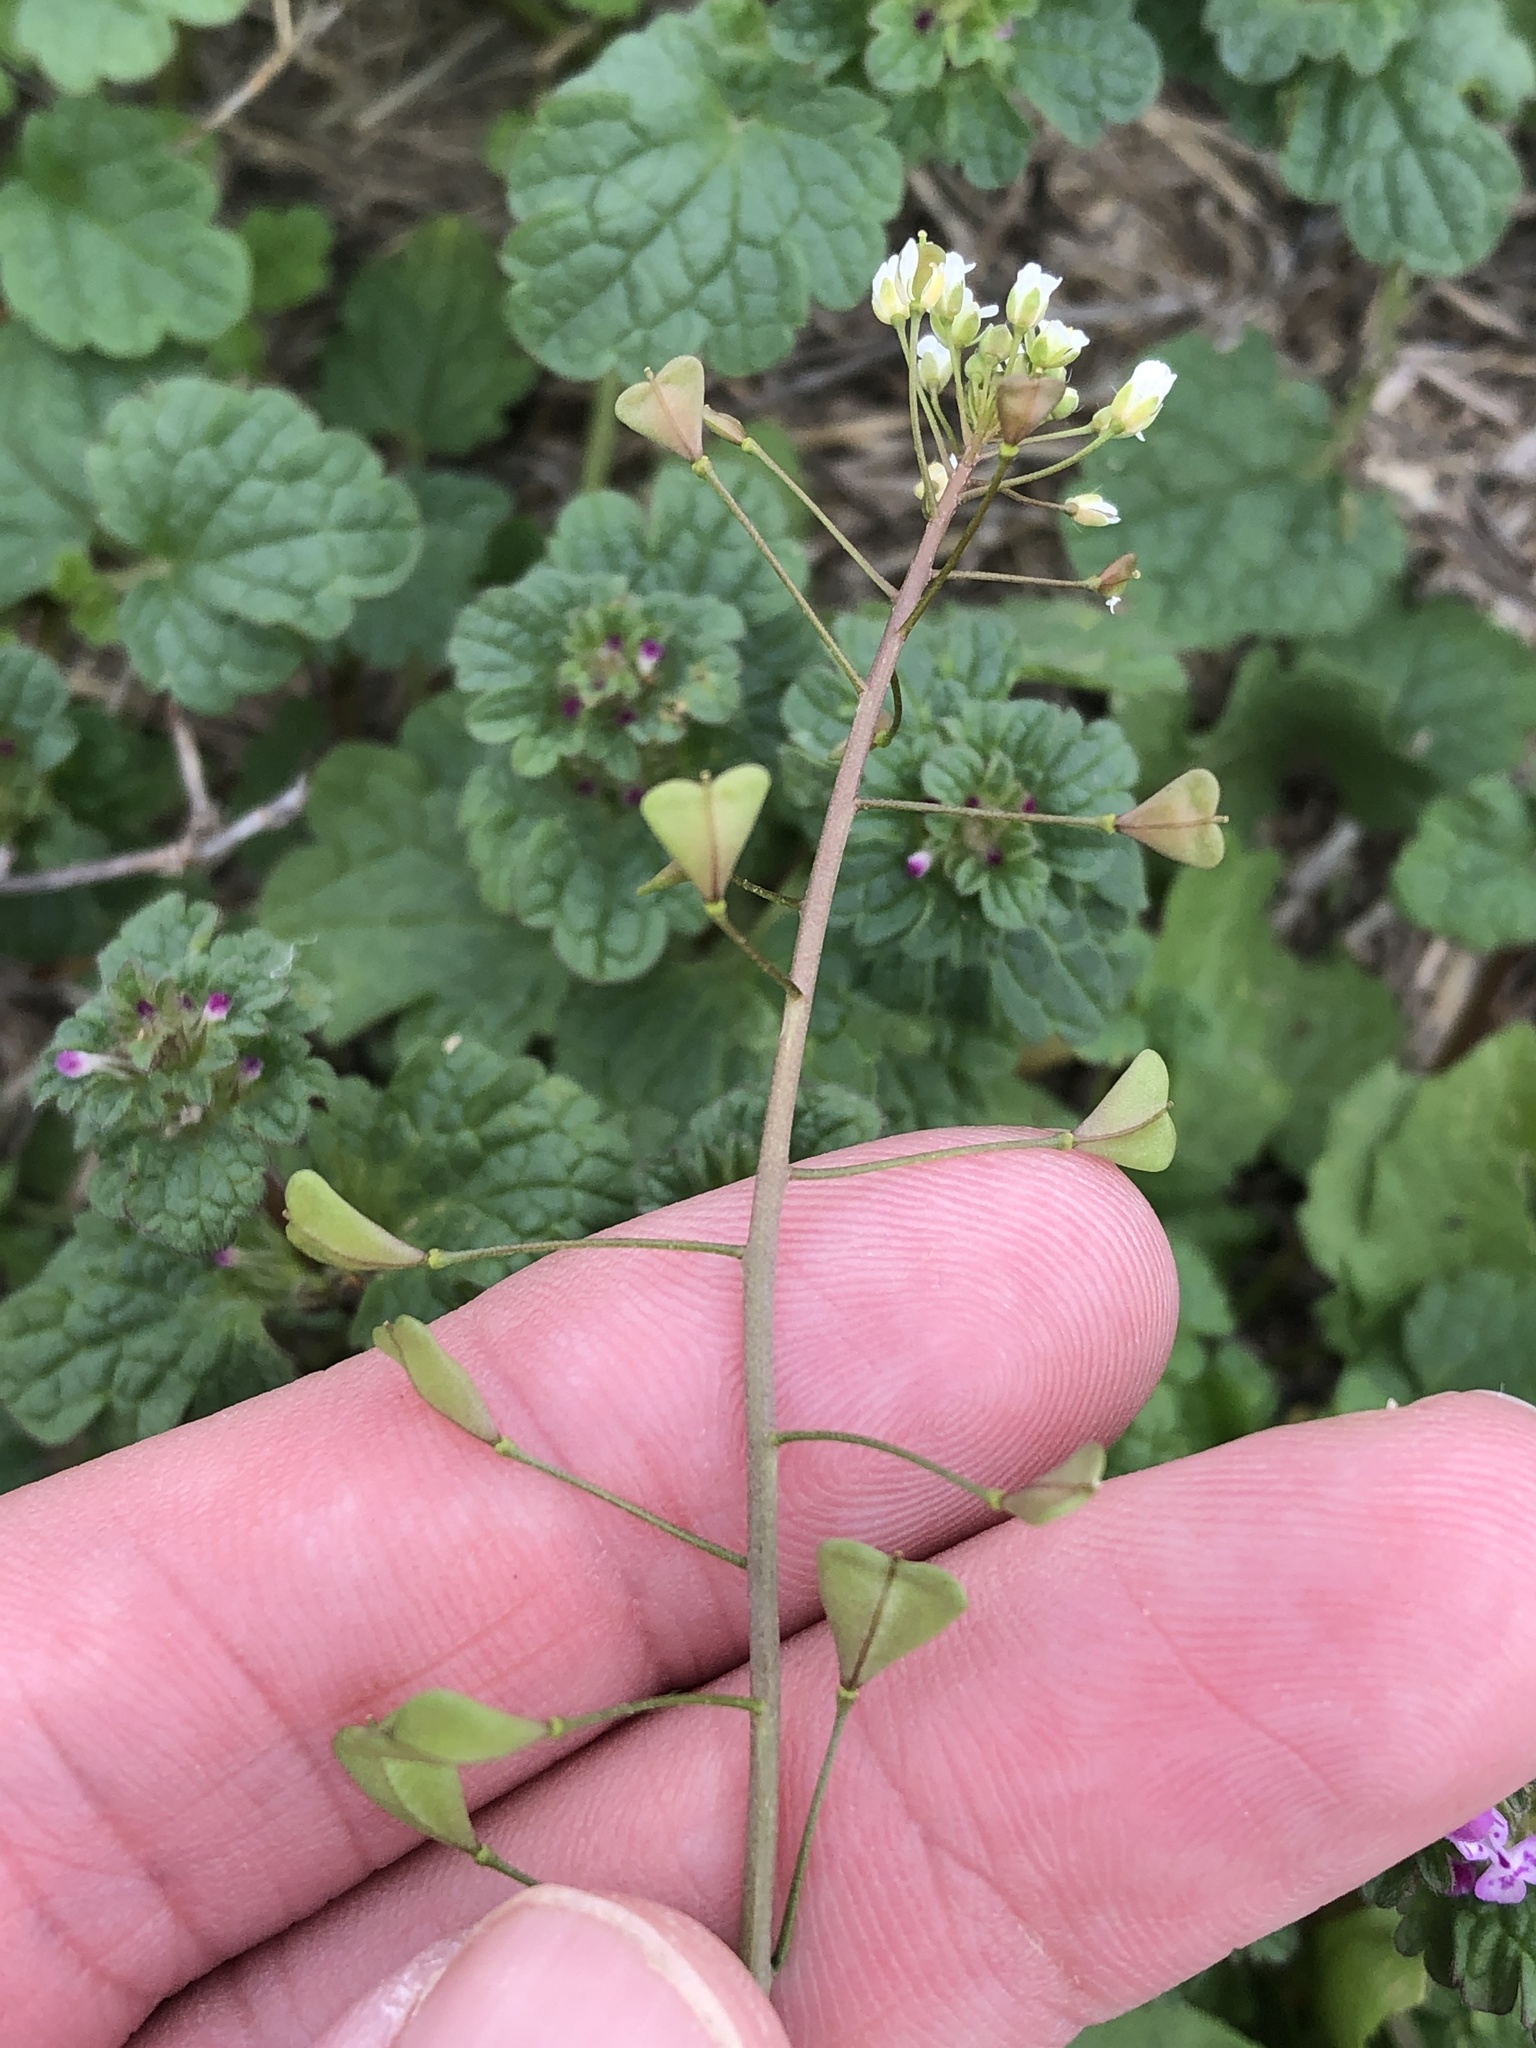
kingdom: Plantae
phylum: Tracheophyta
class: Magnoliopsida
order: Brassicales
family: Brassicaceae
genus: Capsella
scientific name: Capsella bursa-pastoris
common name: Shepherd's purse
